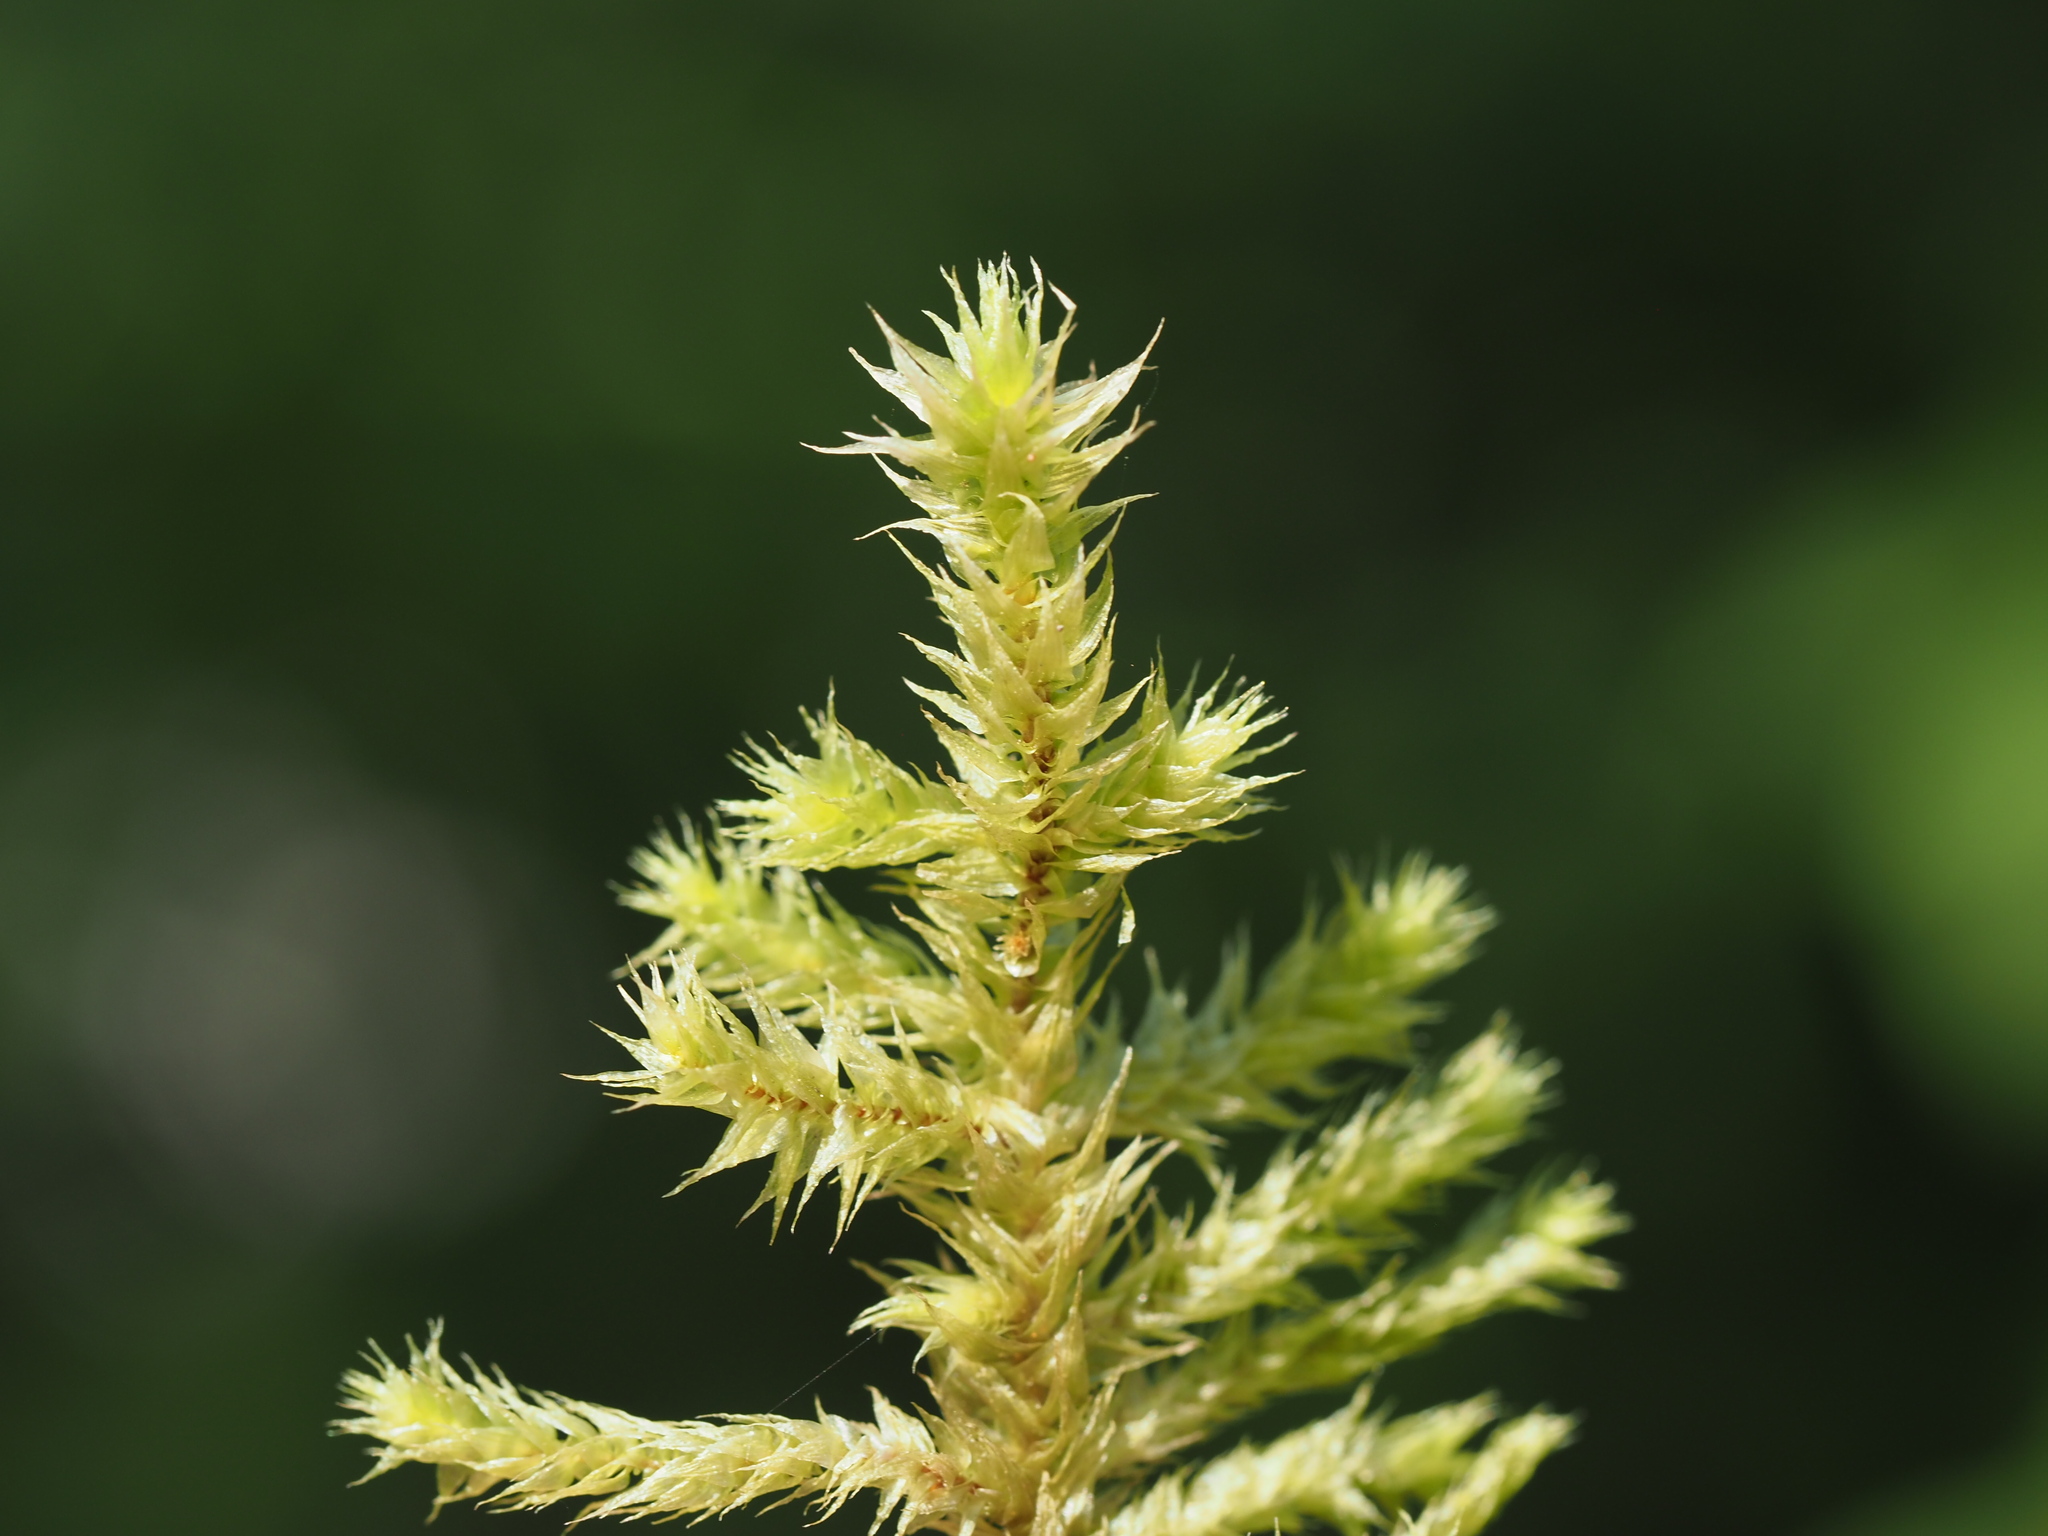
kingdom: Plantae
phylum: Bryophyta
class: Bryopsida
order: Hypnales
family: Hylocomiaceae
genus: Hylocomiadelphus
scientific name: Hylocomiadelphus triquetrus
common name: Rough goose neck moss
